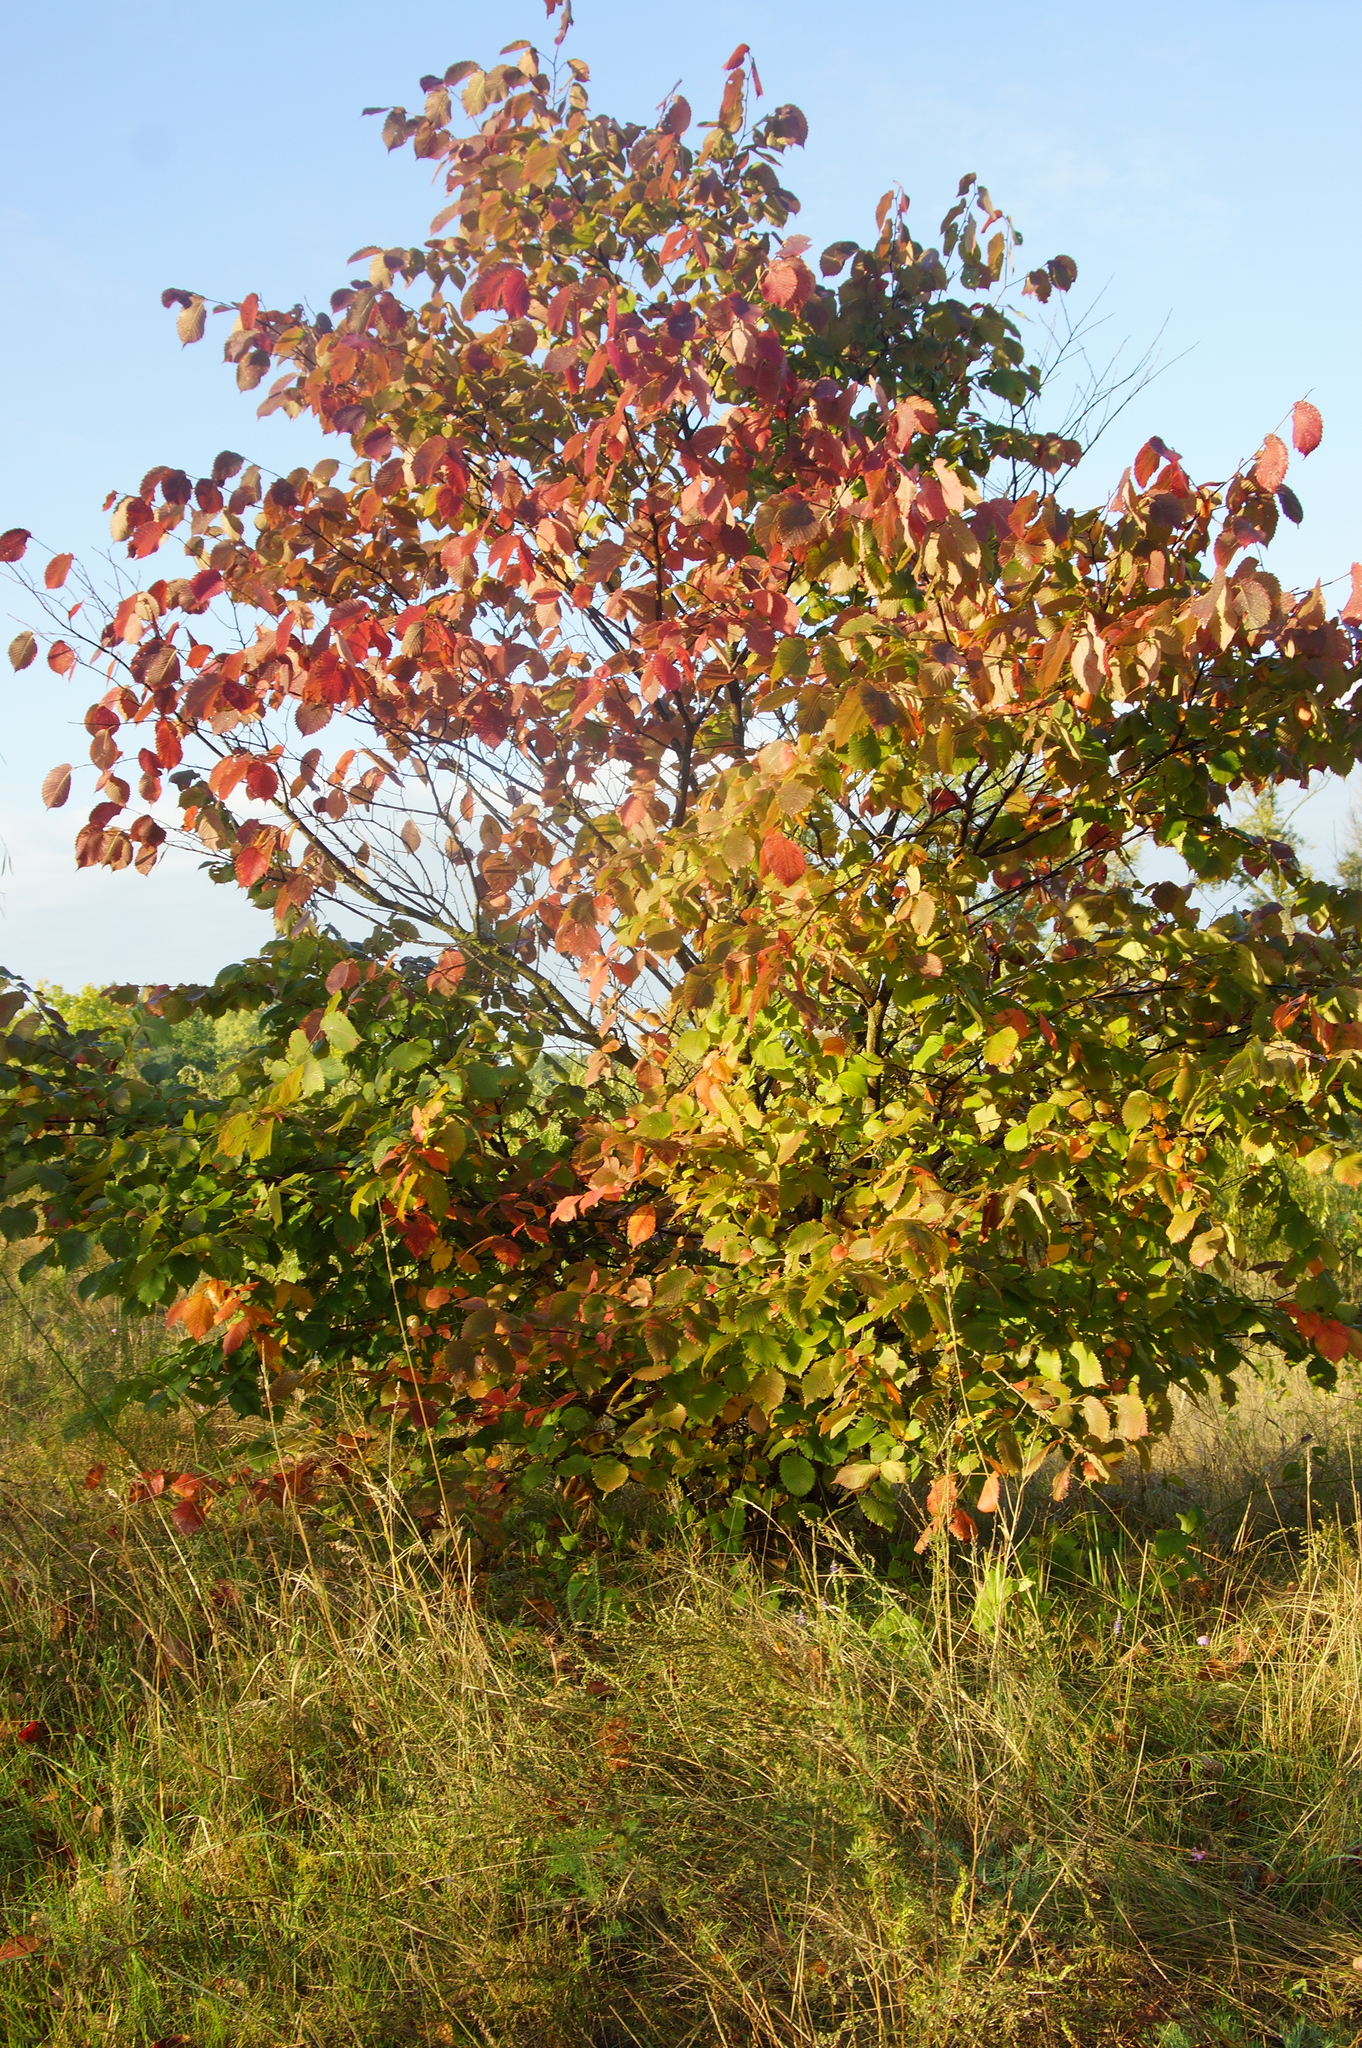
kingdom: Plantae
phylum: Tracheophyta
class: Magnoliopsida
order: Rosales
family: Ulmaceae
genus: Ulmus
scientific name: Ulmus laevis
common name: European white-elm
